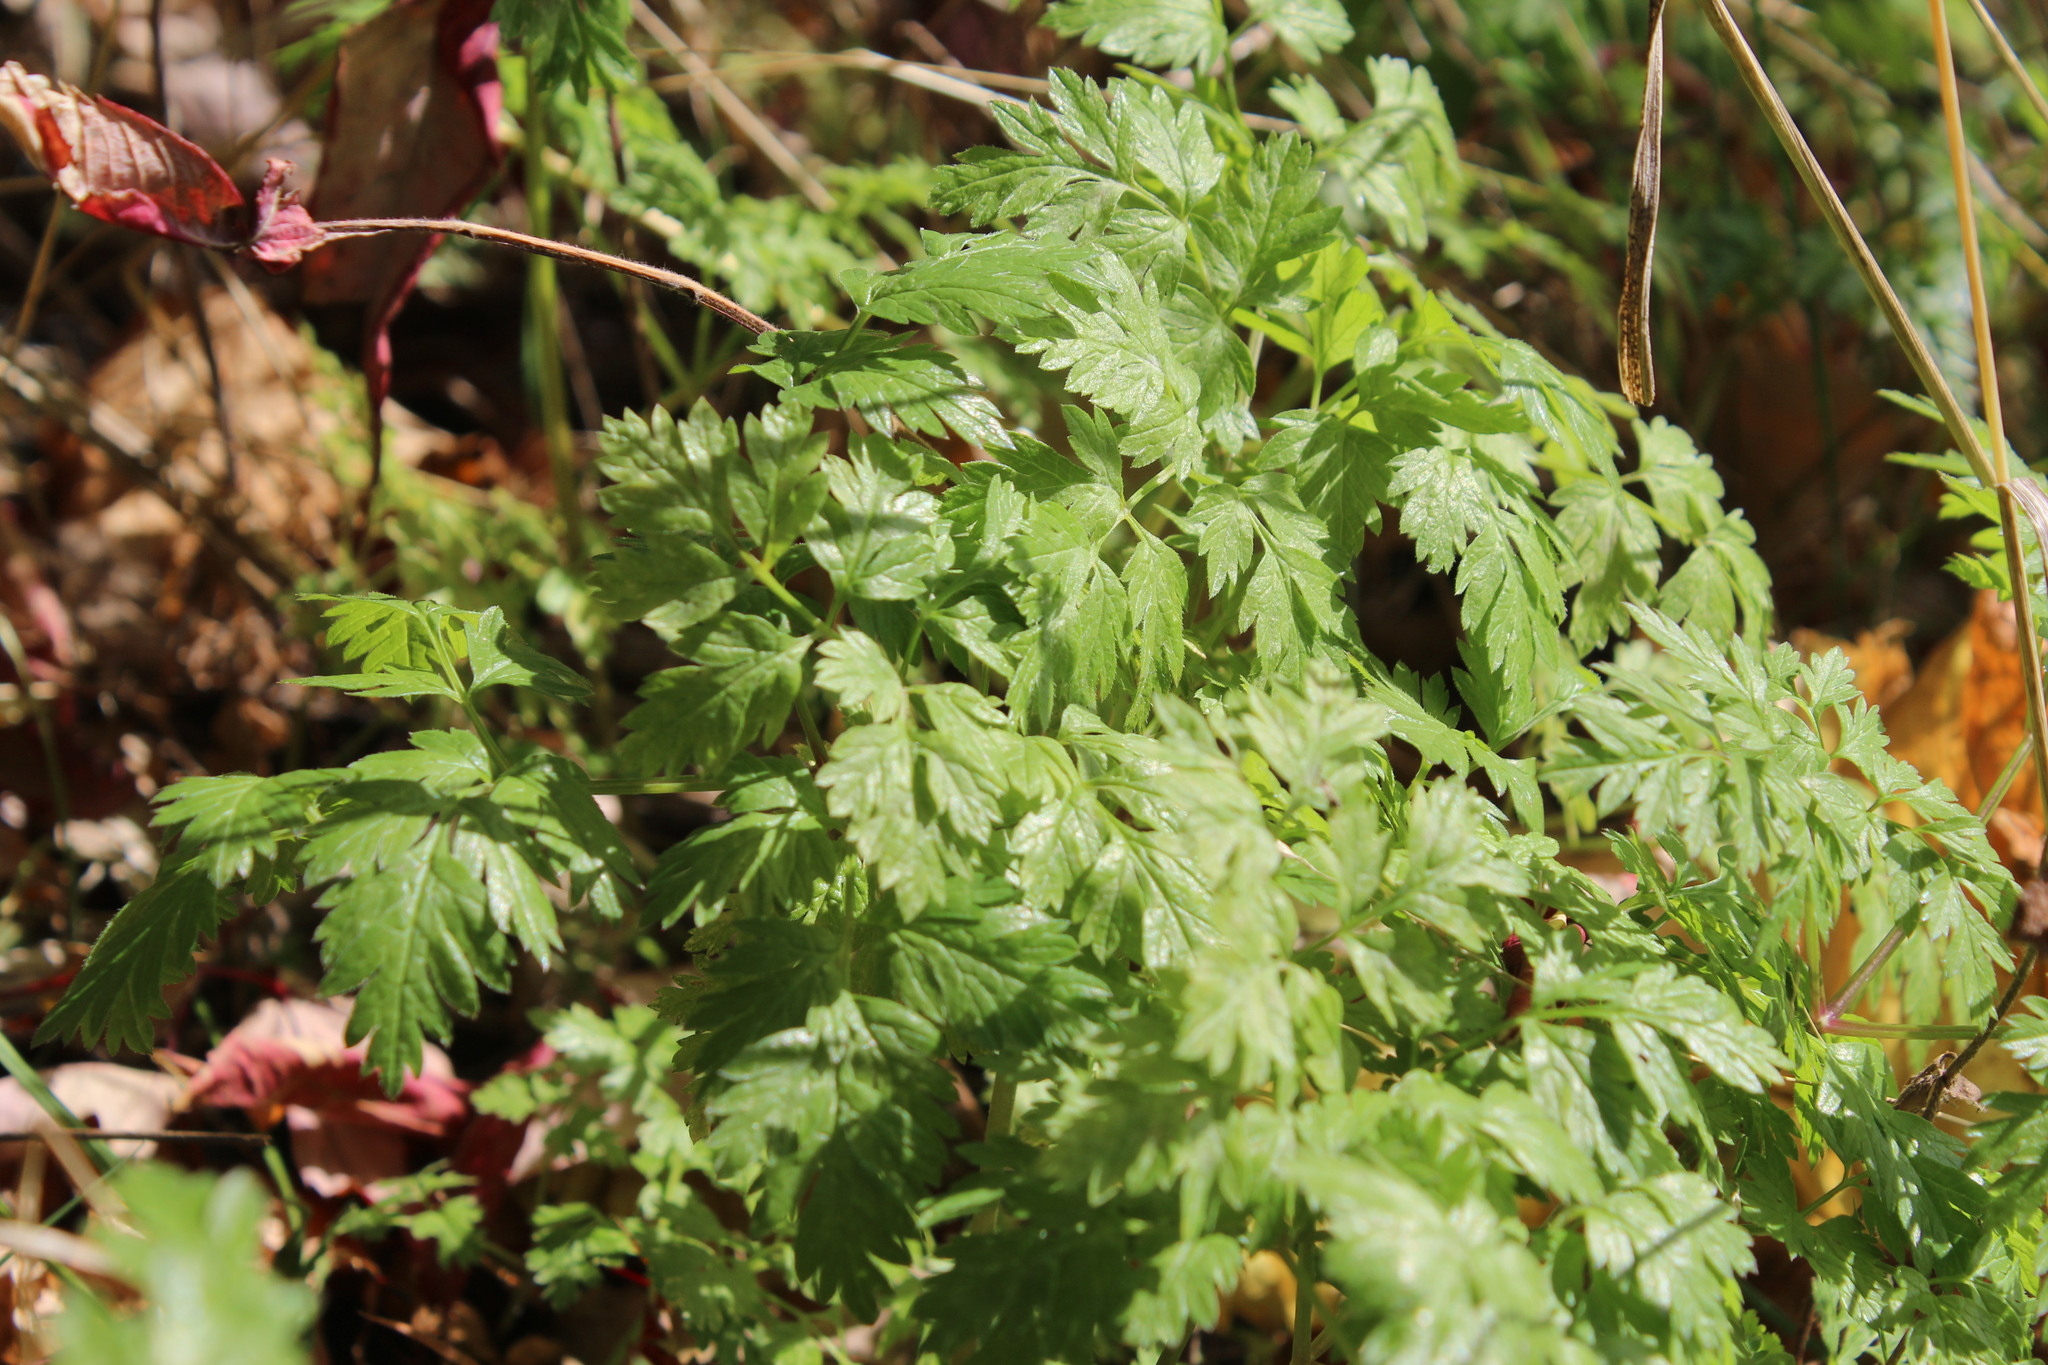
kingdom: Plantae
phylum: Tracheophyta
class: Magnoliopsida
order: Apiales
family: Apiaceae
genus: Anthriscus
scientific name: Anthriscus sylvestris
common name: Cow parsley
